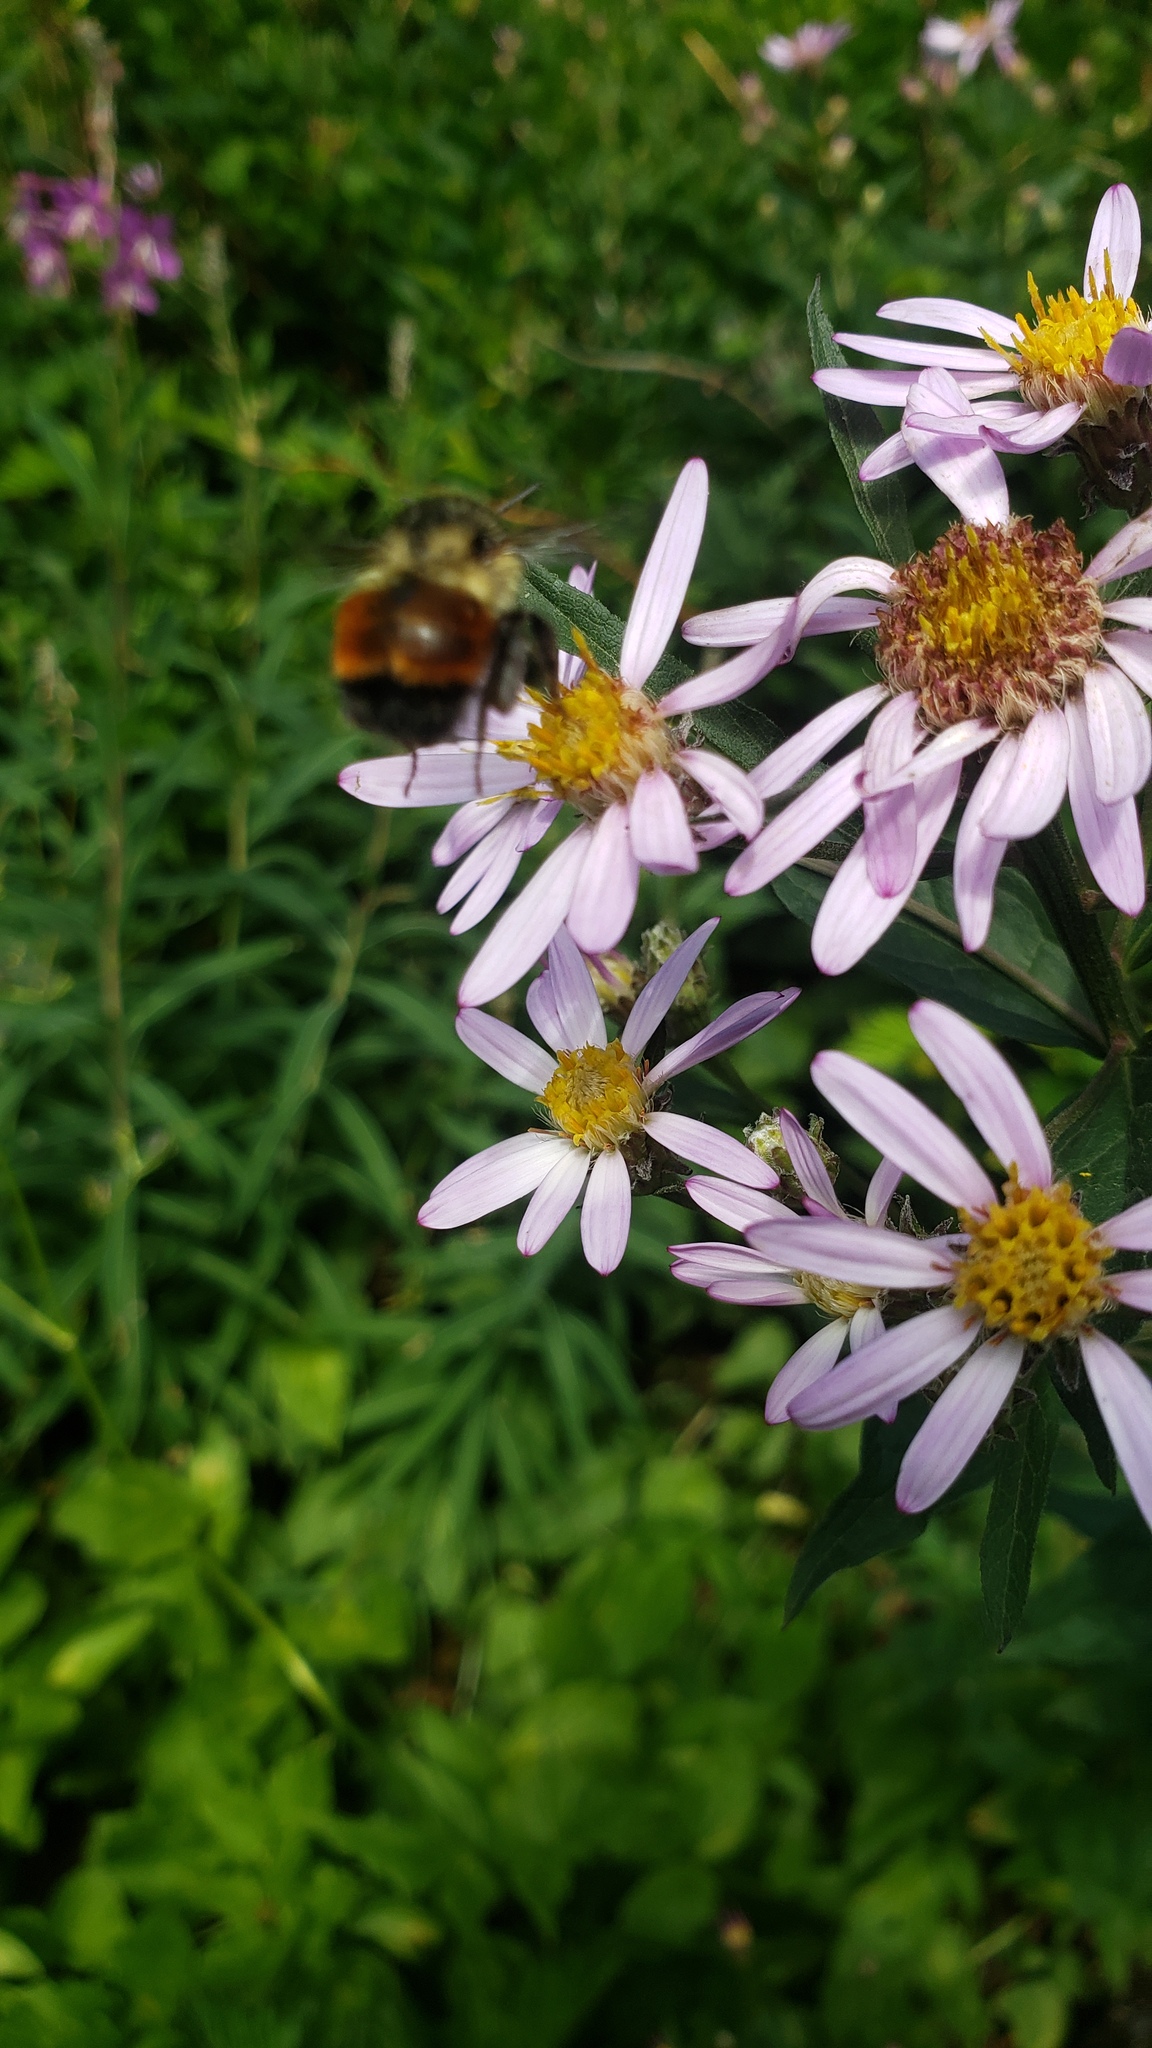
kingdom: Animalia
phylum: Arthropoda
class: Insecta
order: Hymenoptera
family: Apidae
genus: Bombus
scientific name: Bombus melanopygus
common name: Black tail bumble bee
